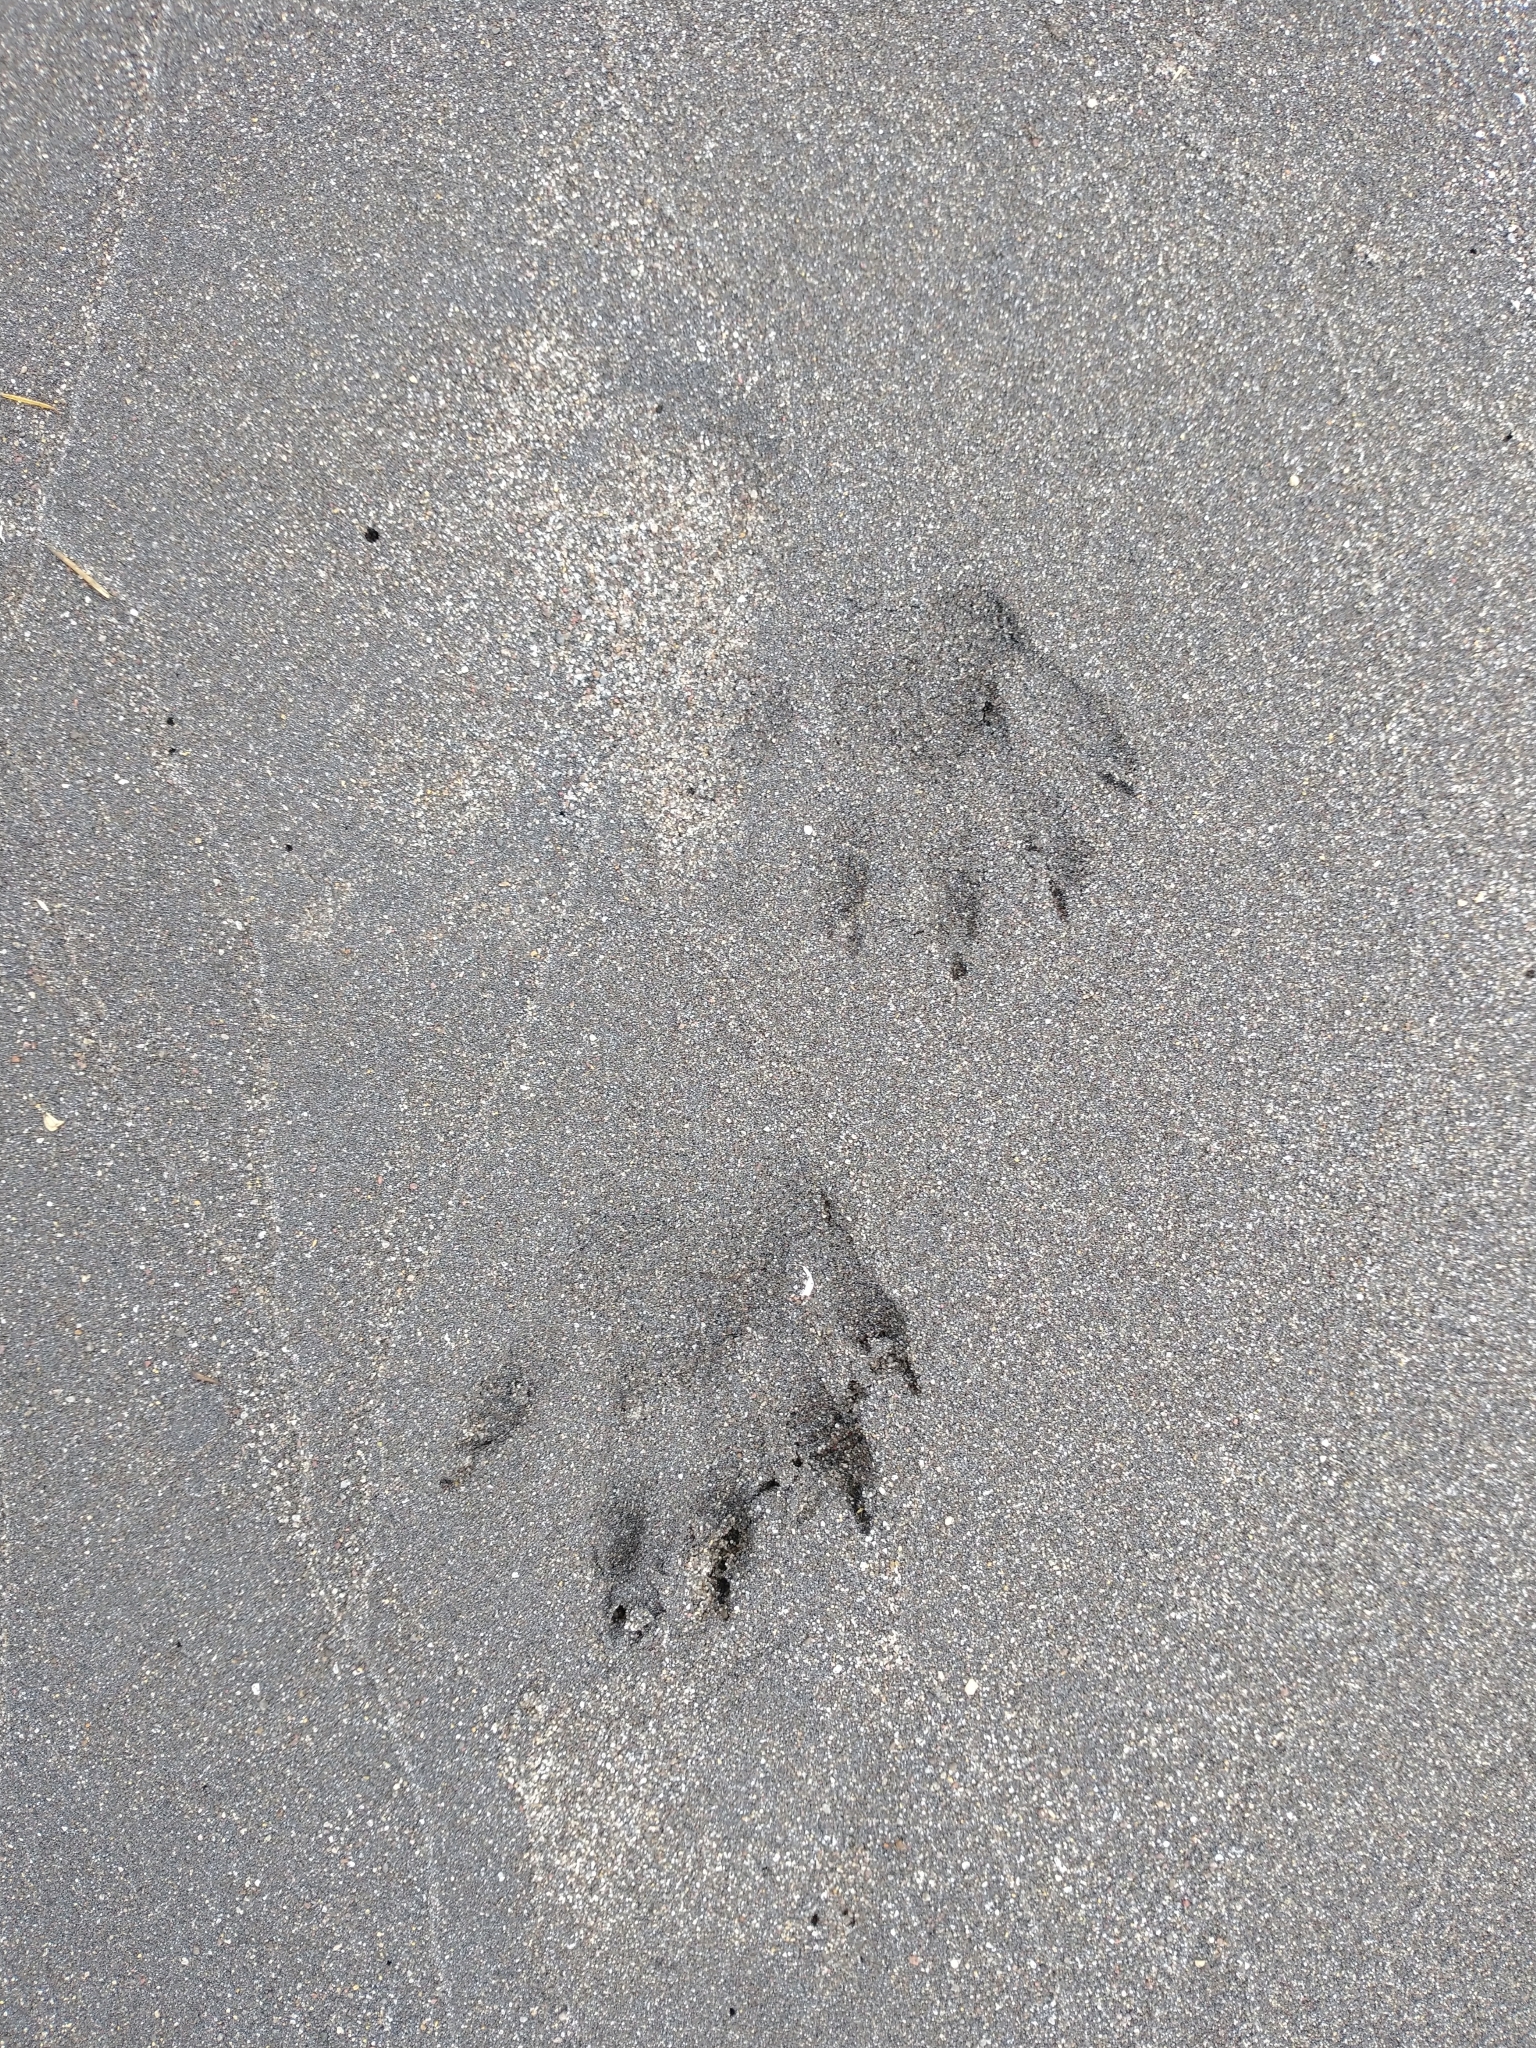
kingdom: Animalia
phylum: Chordata
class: Mammalia
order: Carnivora
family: Procyonidae
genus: Procyon
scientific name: Procyon lotor
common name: Raccoon
